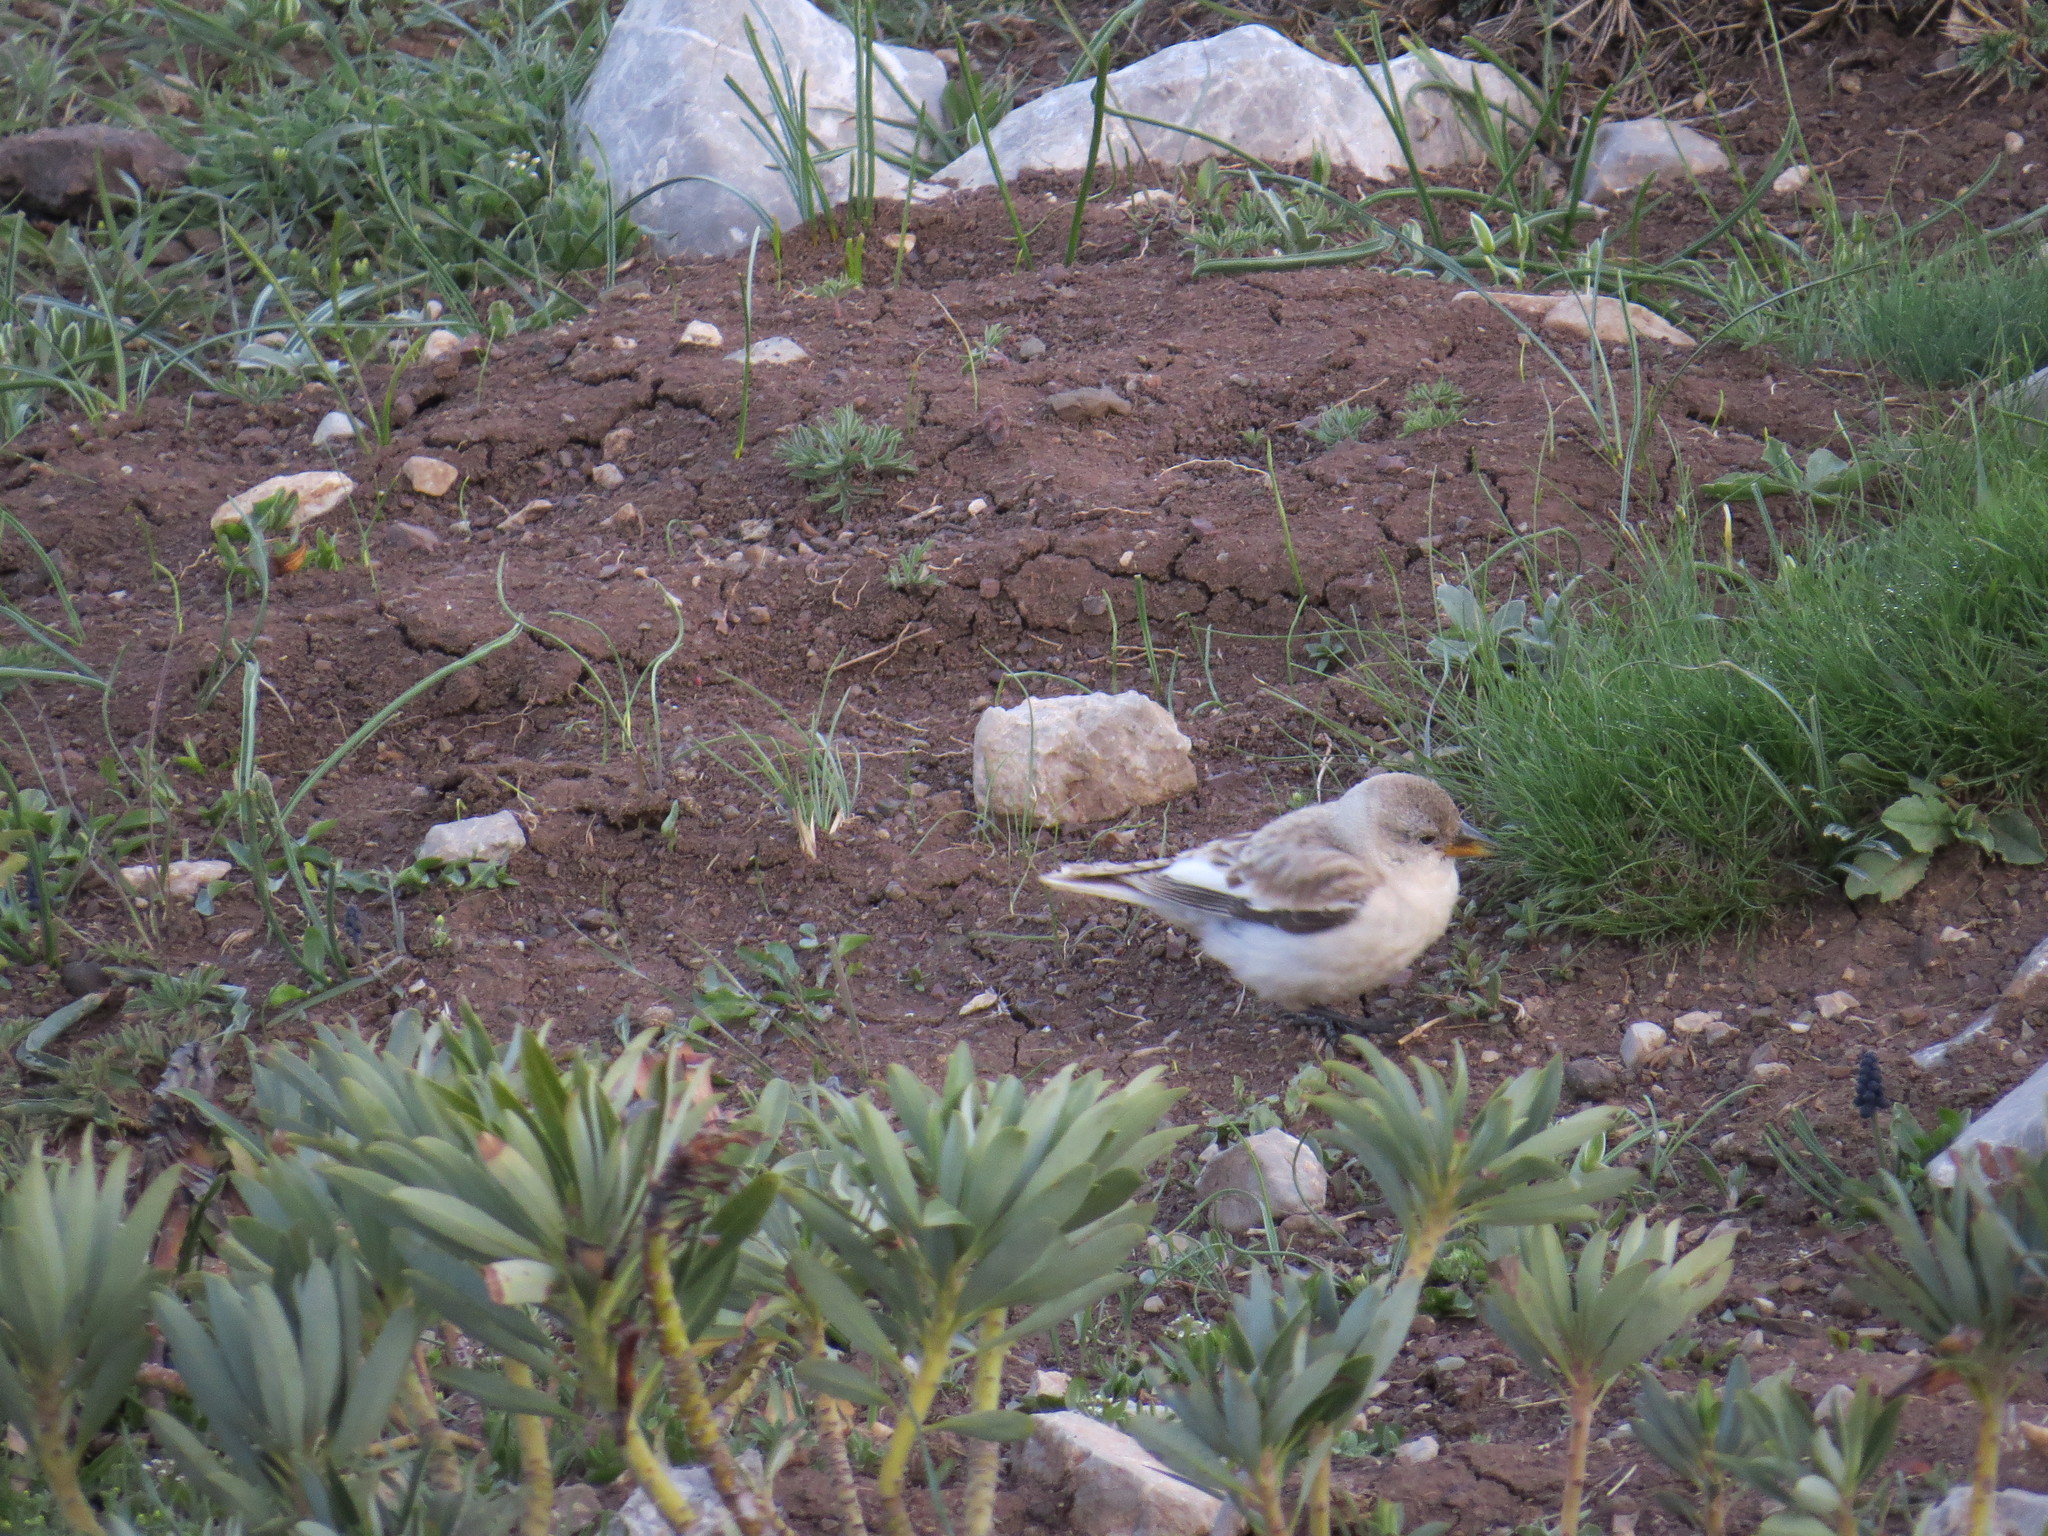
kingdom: Animalia
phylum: Chordata
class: Aves
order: Passeriformes
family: Passeridae
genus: Montifringilla
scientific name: Montifringilla nivalis
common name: White-winged snowfinch
